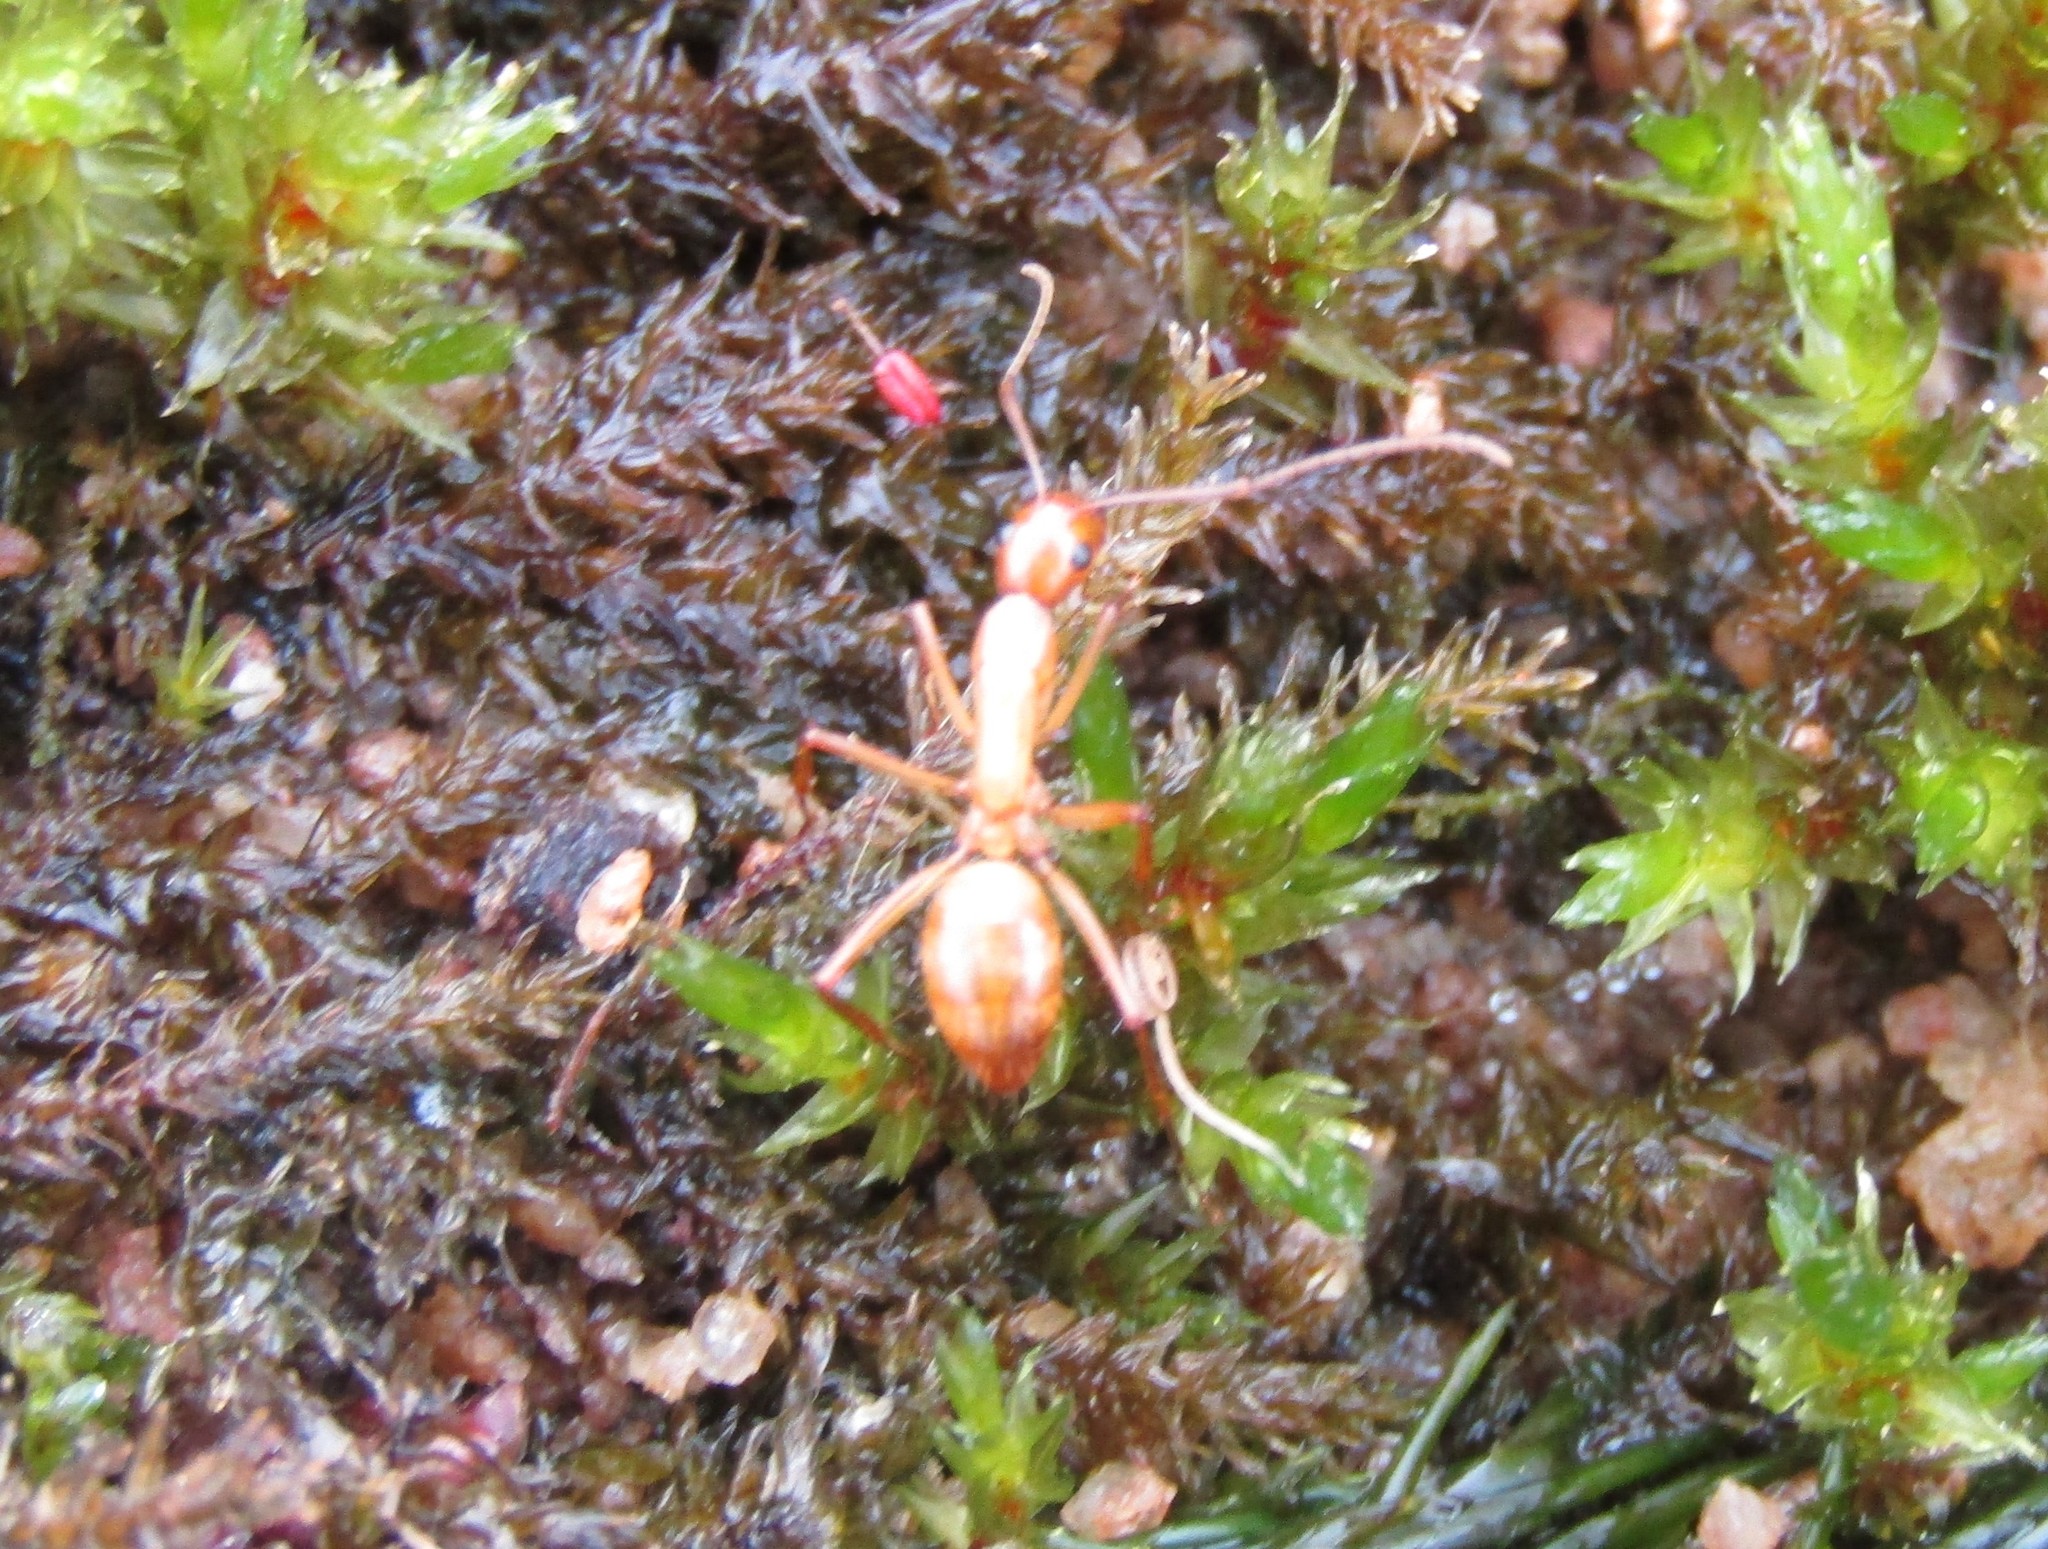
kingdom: Animalia
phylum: Arthropoda
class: Insecta
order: Hymenoptera
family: Formicidae
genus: Camponotus
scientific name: Camponotus castaneus
